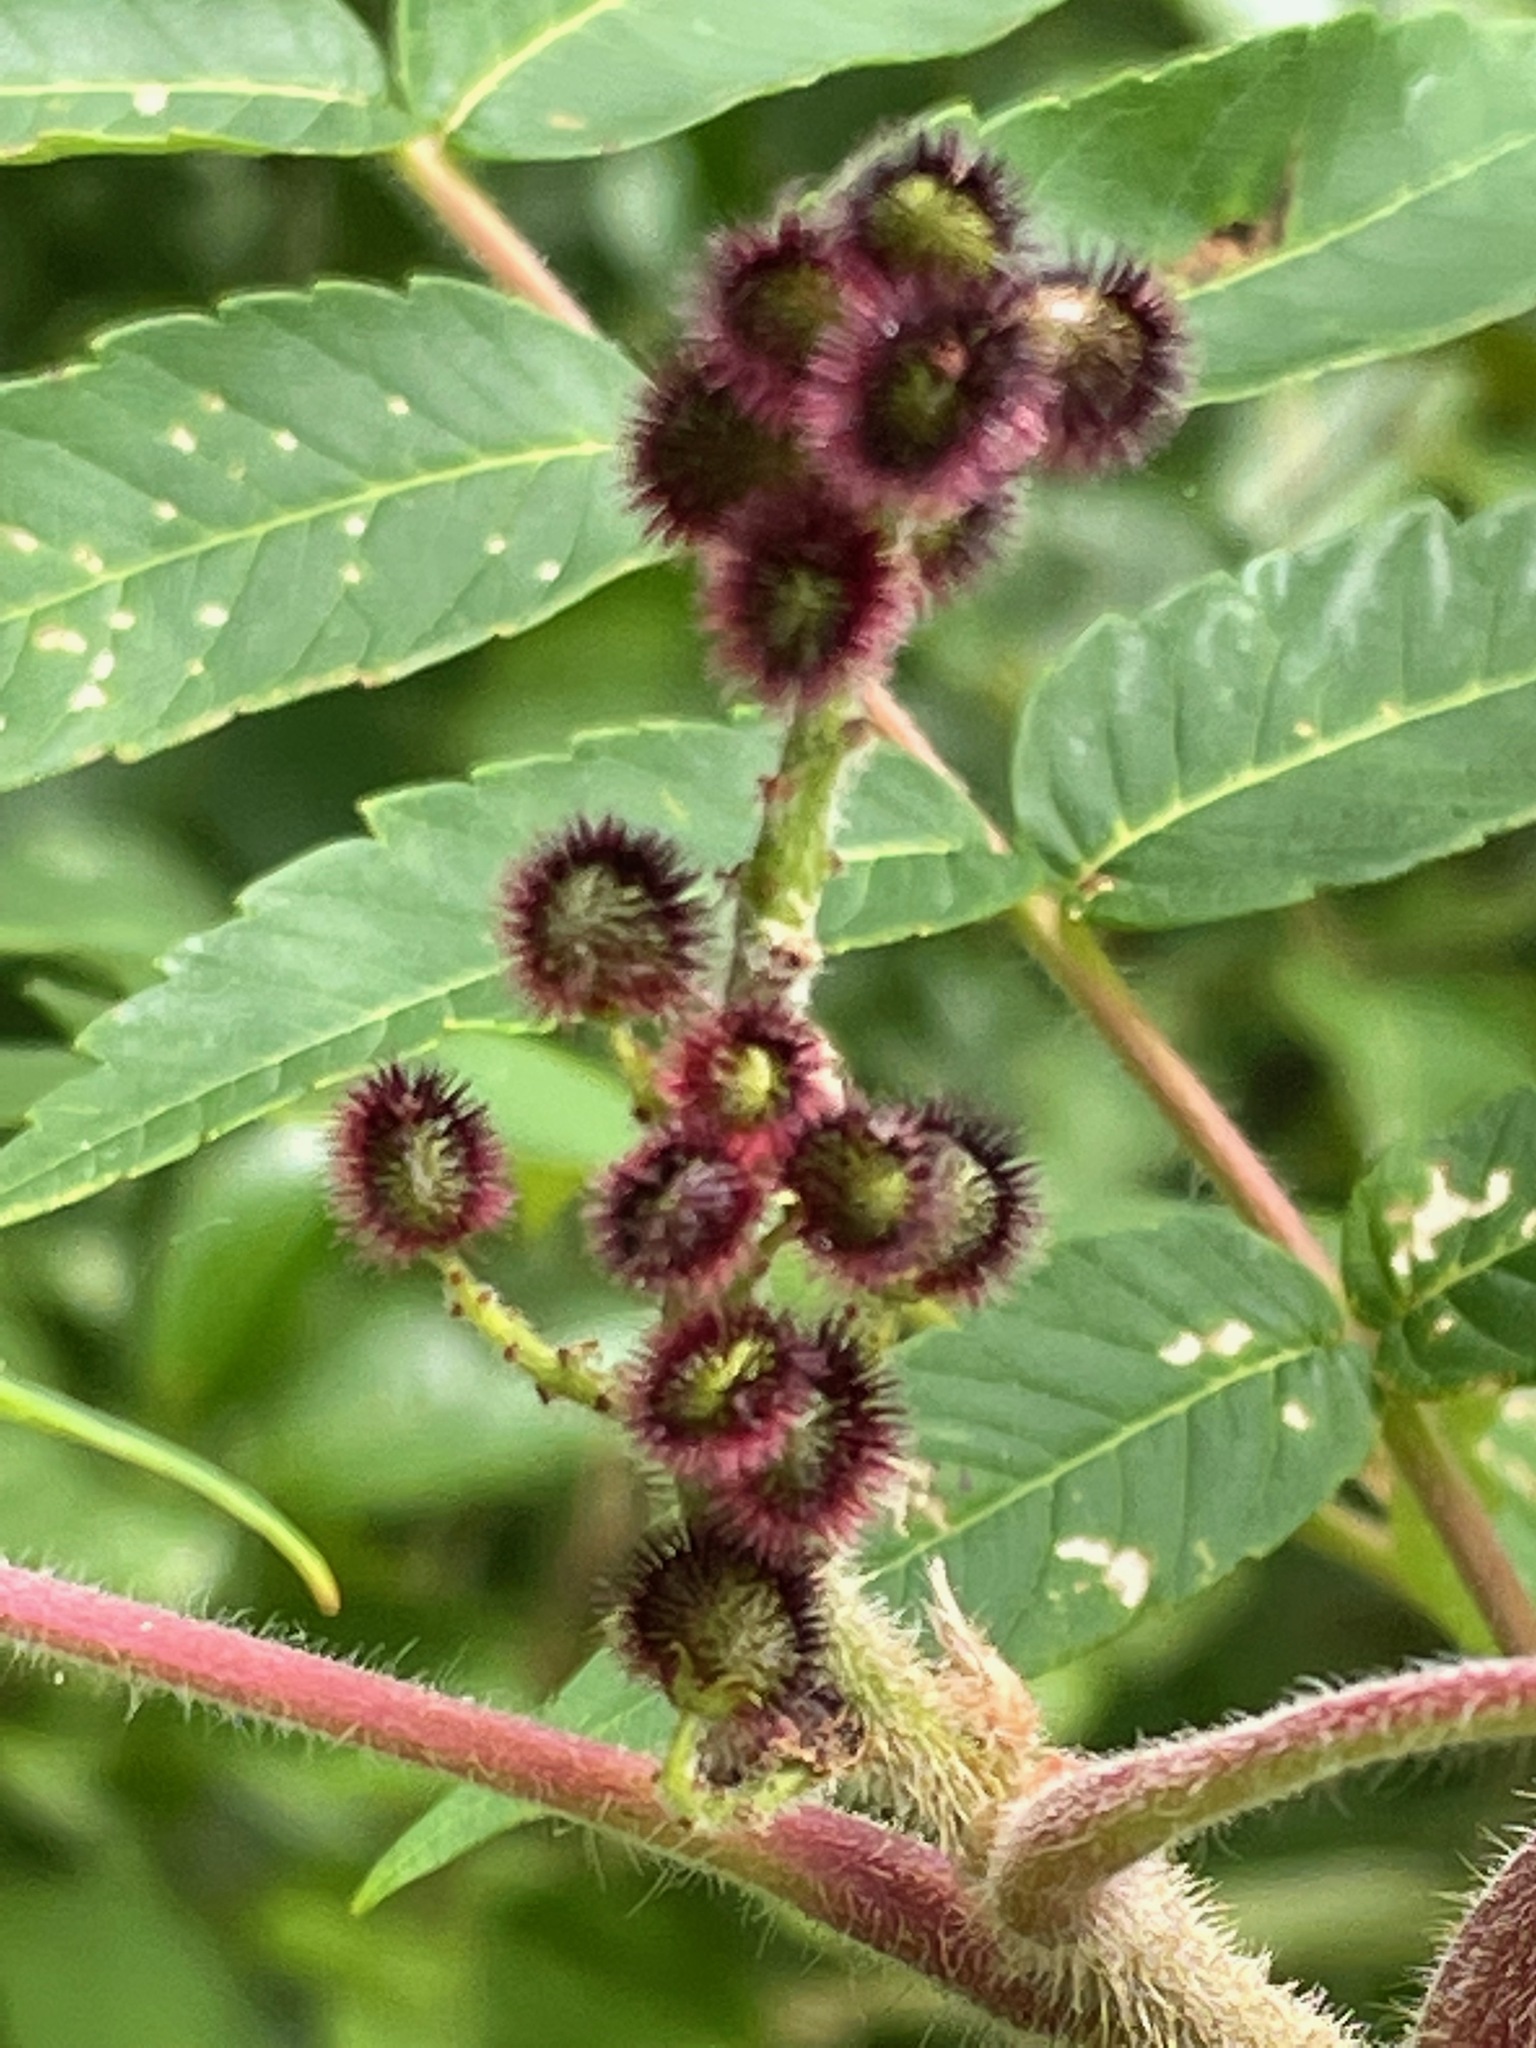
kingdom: Plantae
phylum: Tracheophyta
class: Magnoliopsida
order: Sapindales
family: Anacardiaceae
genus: Rhus
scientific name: Rhus typhina
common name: Staghorn sumac
